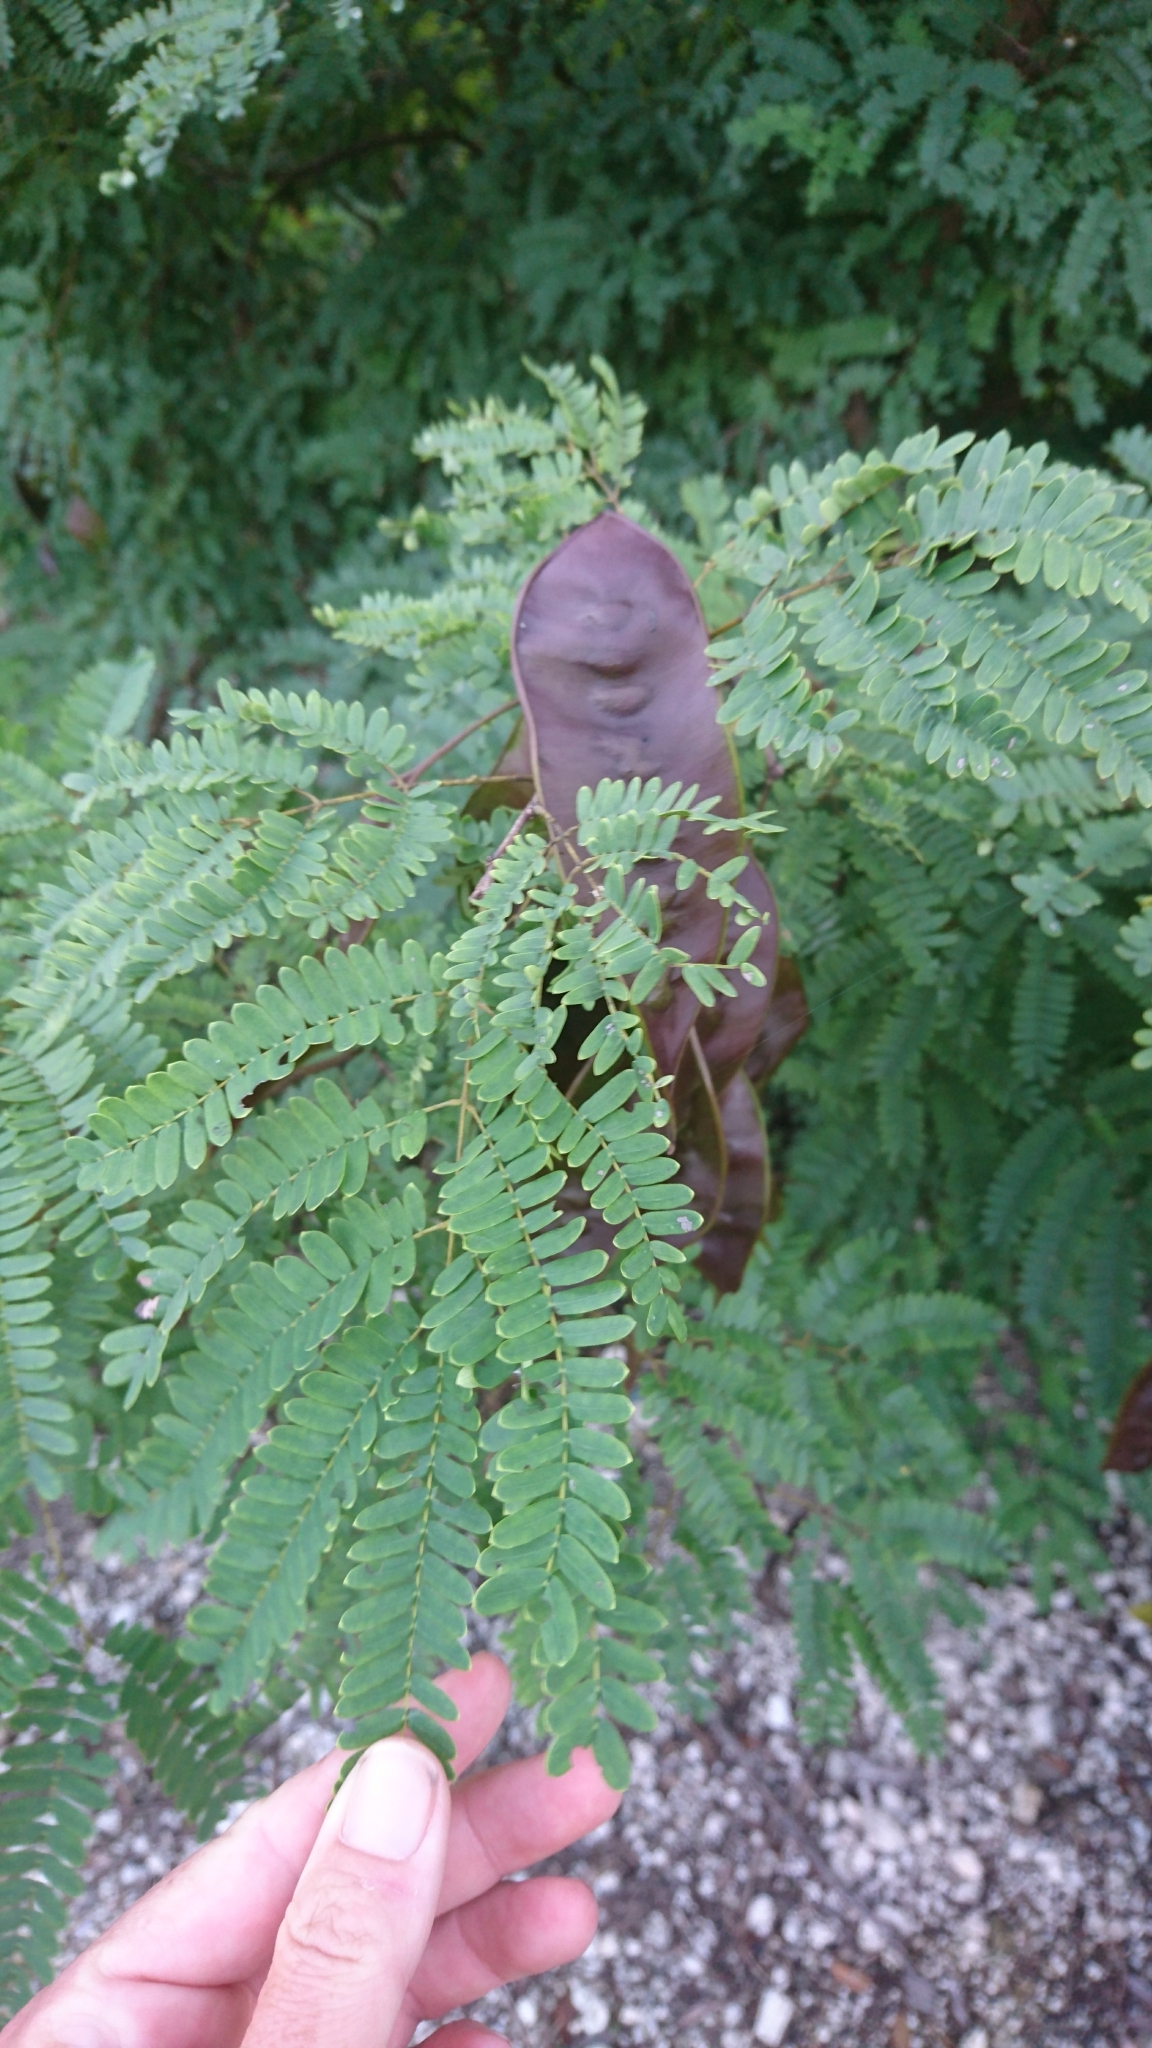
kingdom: Plantae
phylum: Tracheophyta
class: Magnoliopsida
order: Fabales
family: Fabaceae
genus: Lysiloma
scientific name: Lysiloma latisiliquum
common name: Wild tamarind
